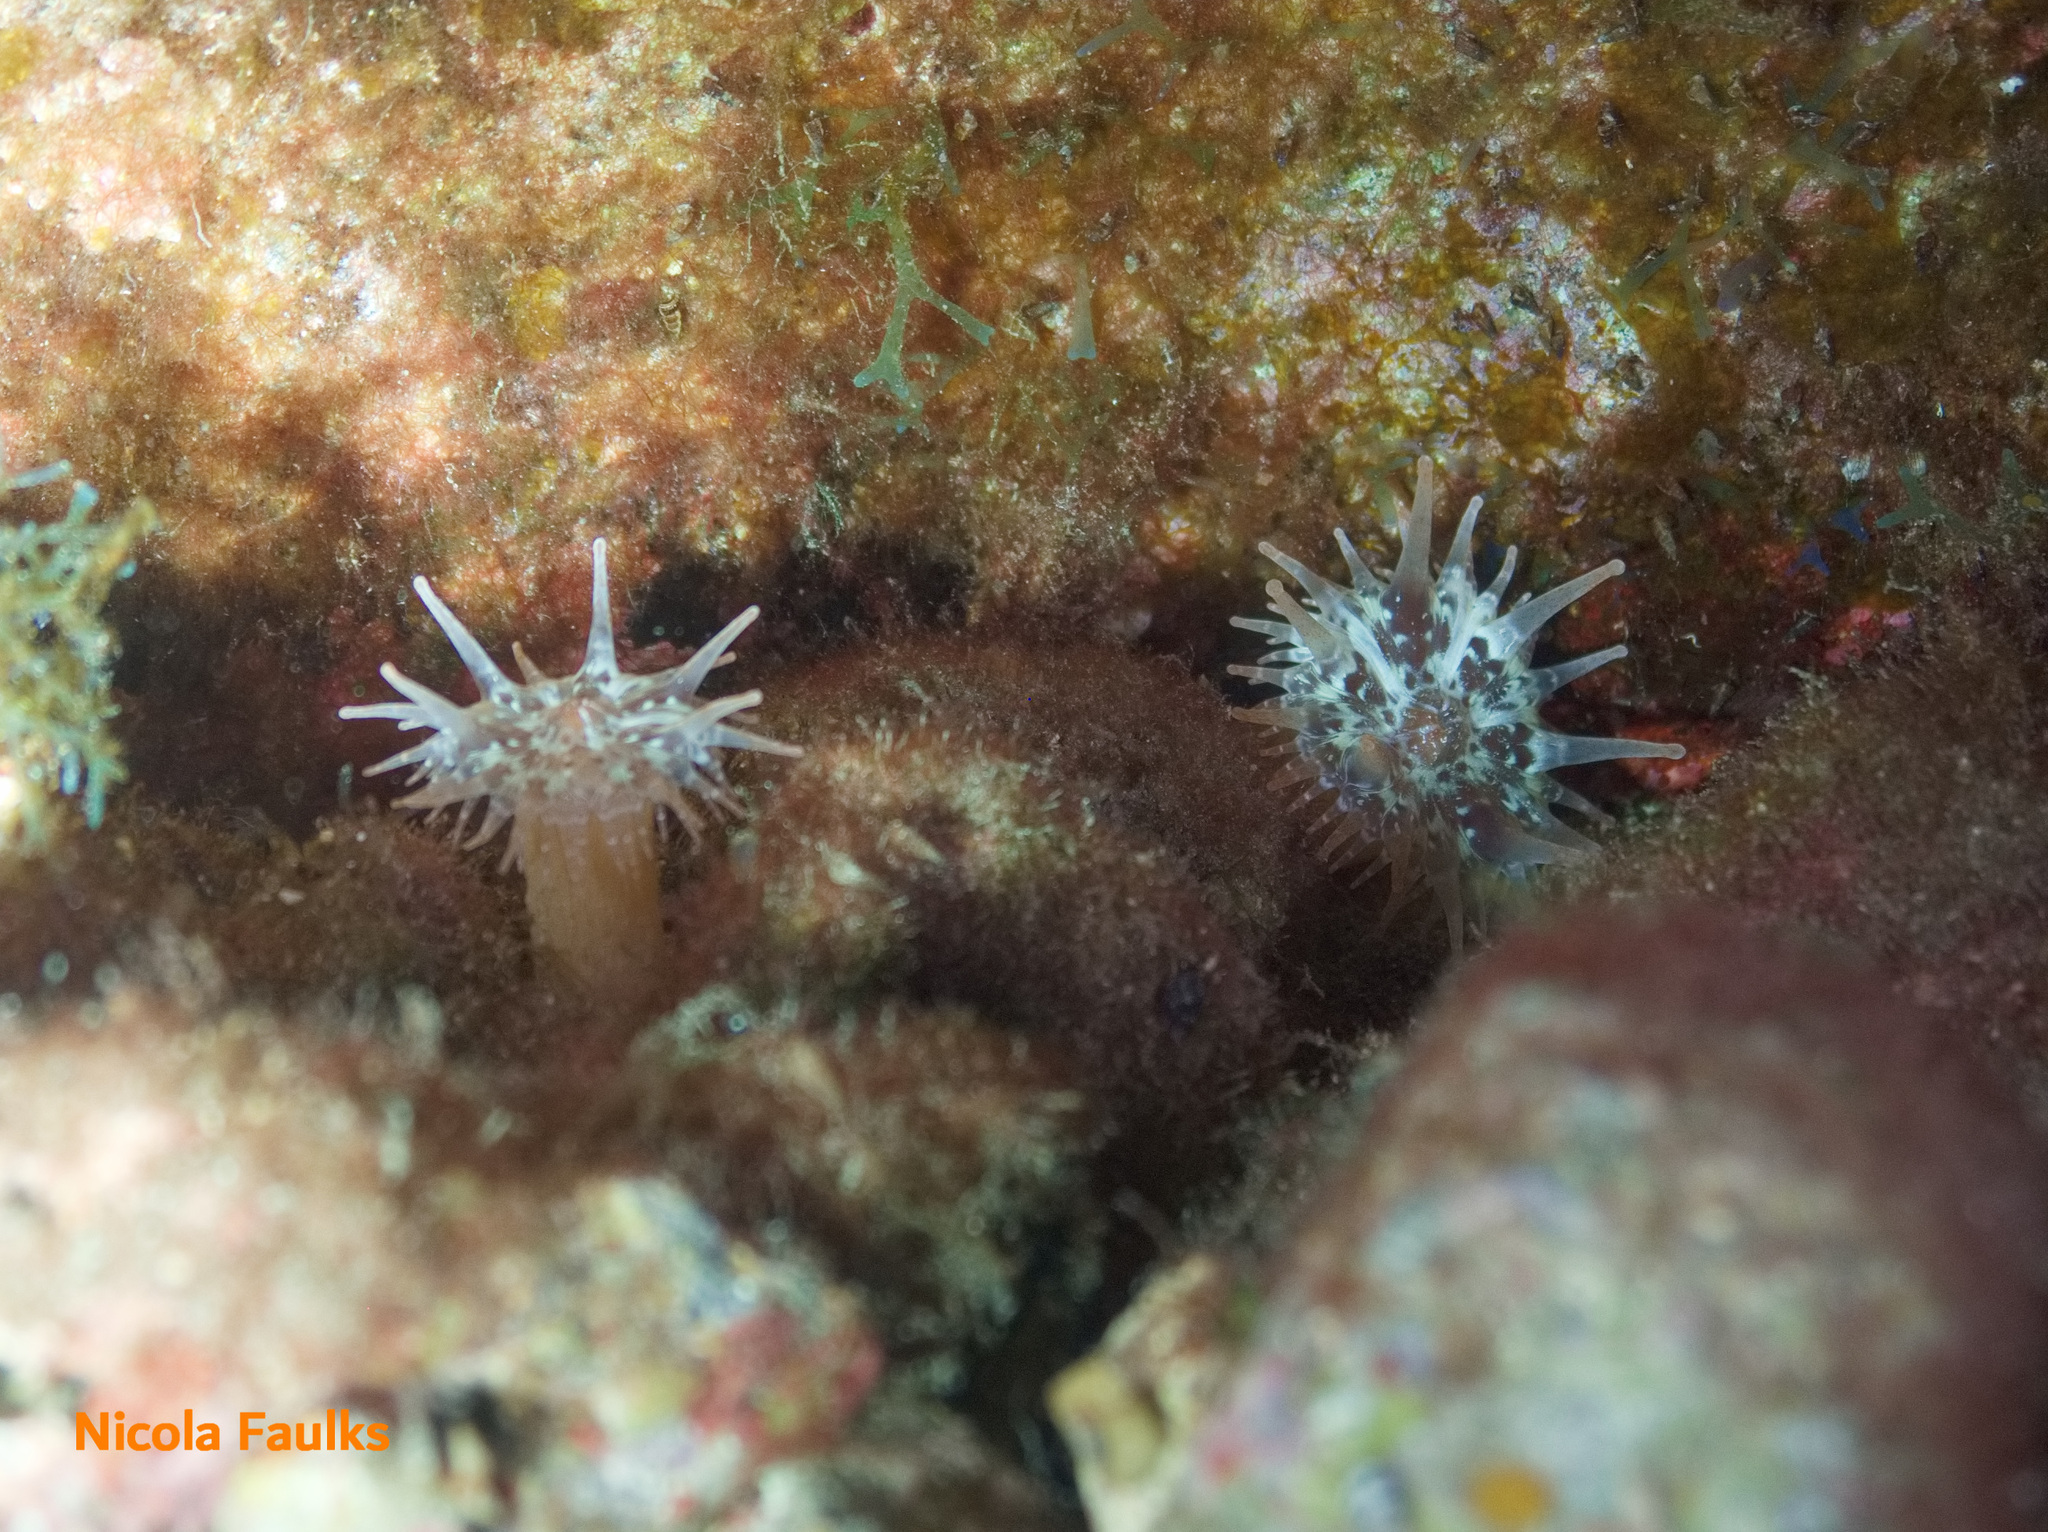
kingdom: Animalia
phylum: Cnidaria
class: Anthozoa
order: Actiniaria
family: Andvakiidae
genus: Telmatactis
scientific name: Telmatactis cricoides
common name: Blunt-tentacled anemone
